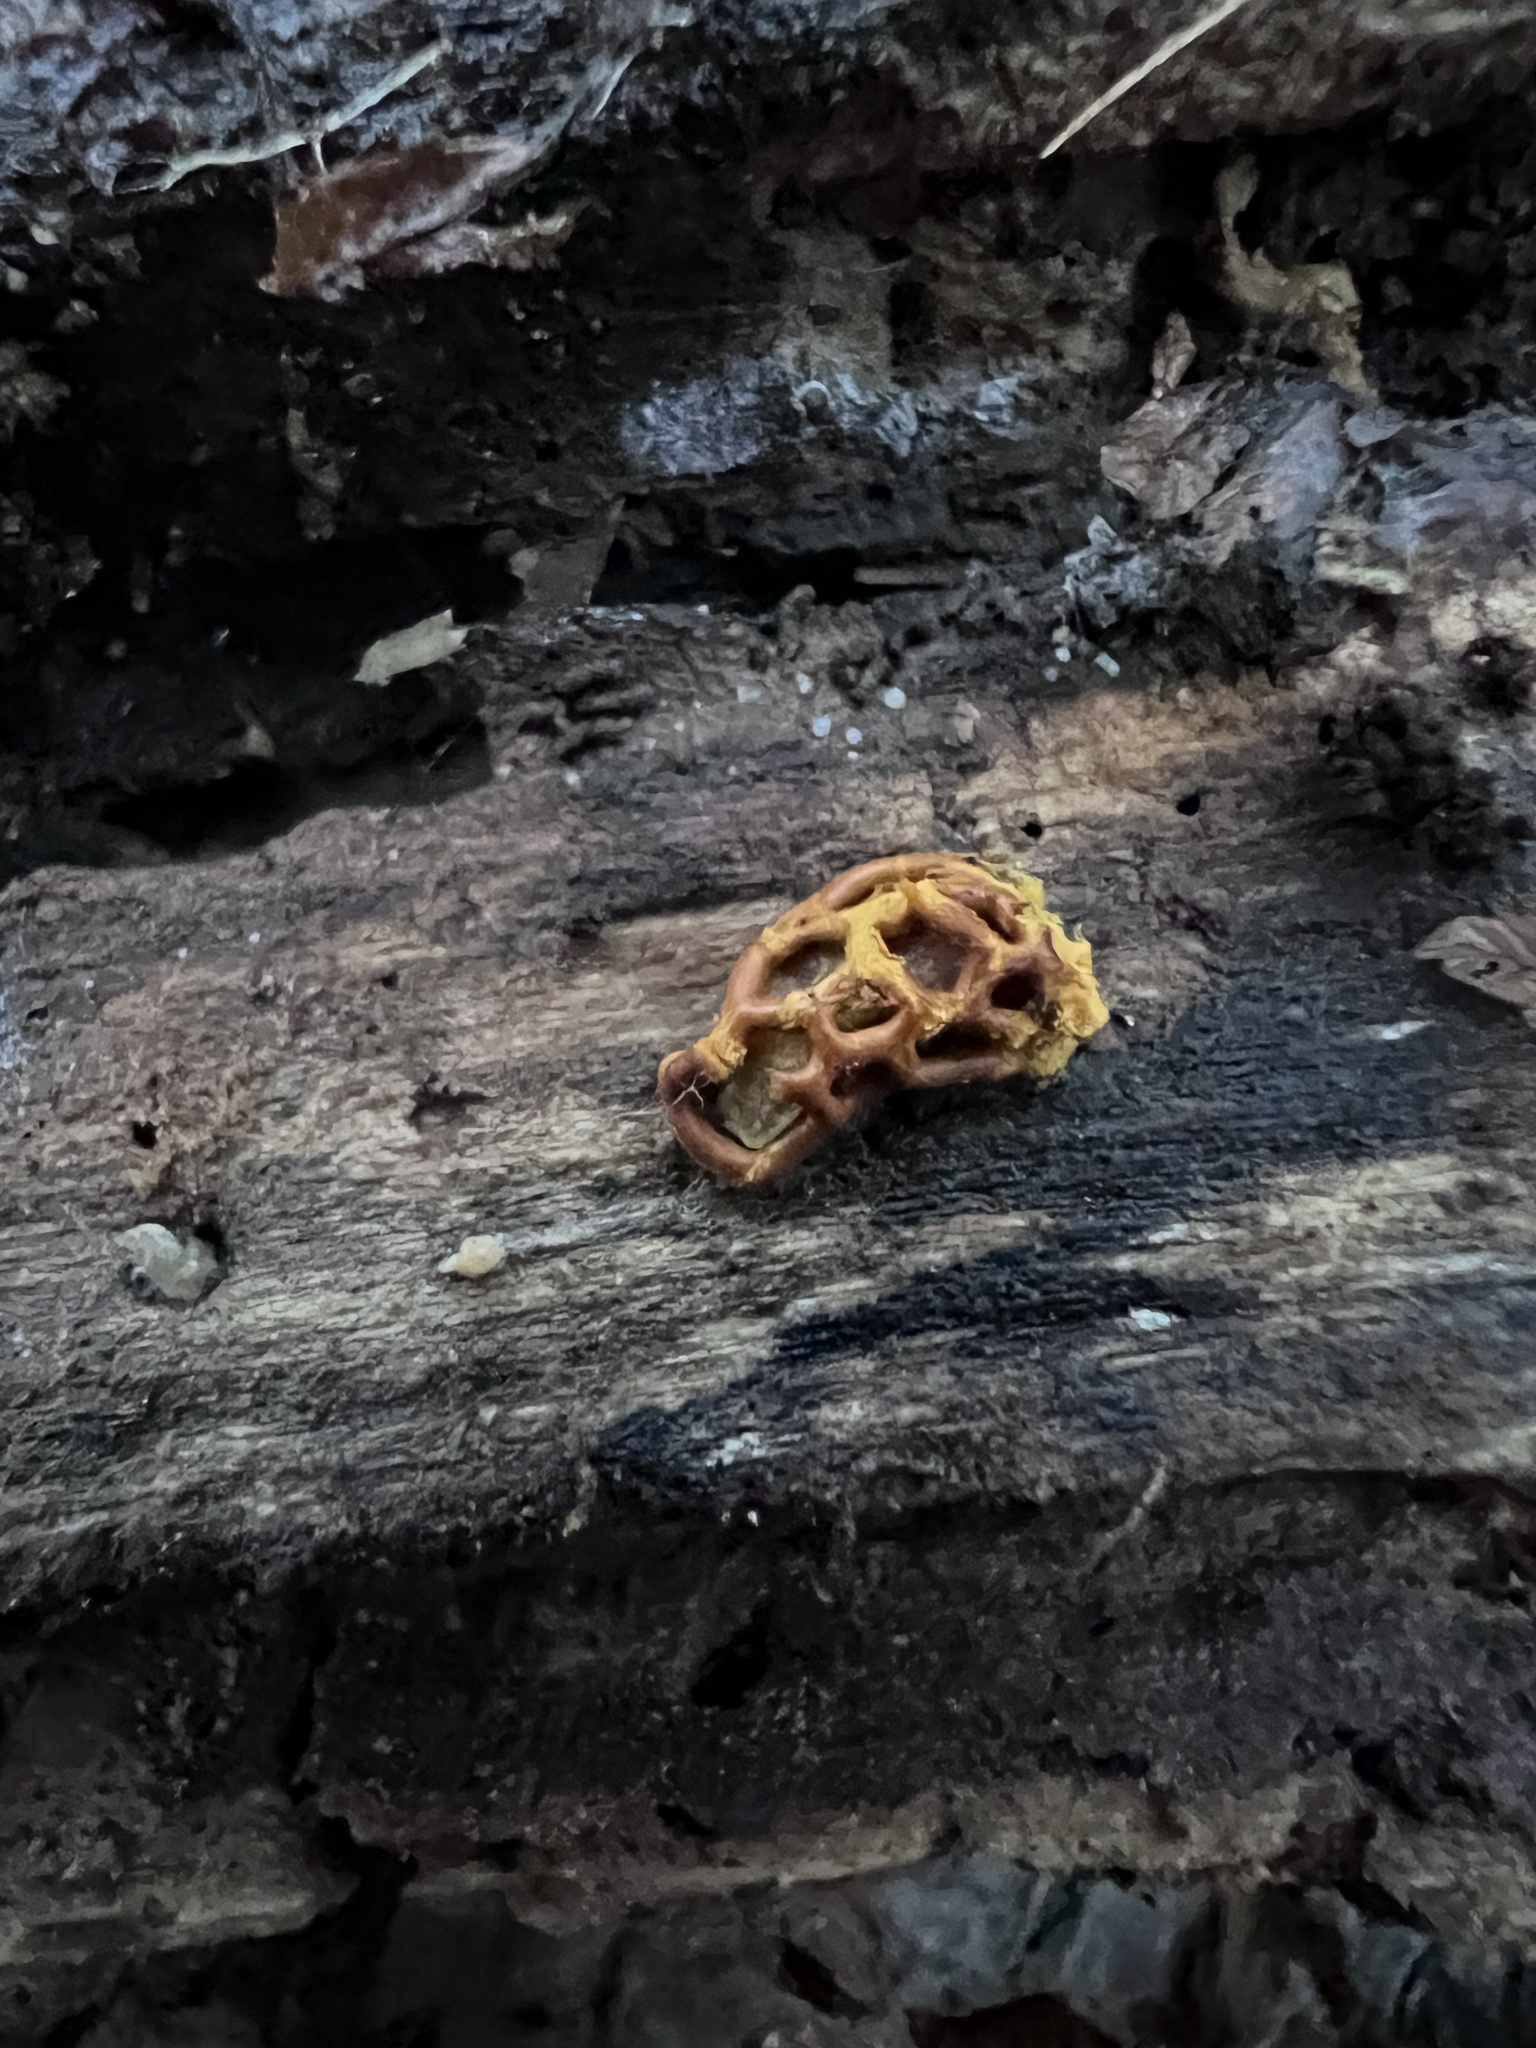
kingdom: Protozoa
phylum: Mycetozoa
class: Myxomycetes
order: Trichiales
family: Arcyriaceae
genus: Hemitrichia
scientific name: Hemitrichia serpula
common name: Pretzel slime mold
